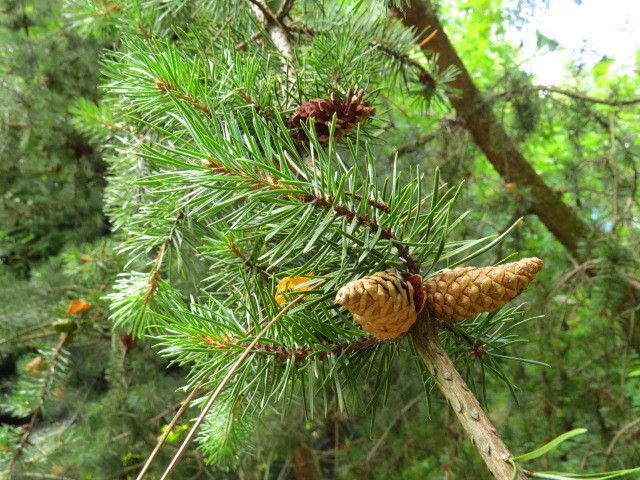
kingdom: Plantae
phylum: Tracheophyta
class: Pinopsida
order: Pinales
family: Pinaceae
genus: Pinus
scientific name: Pinus sylvestris
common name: Scots pine
